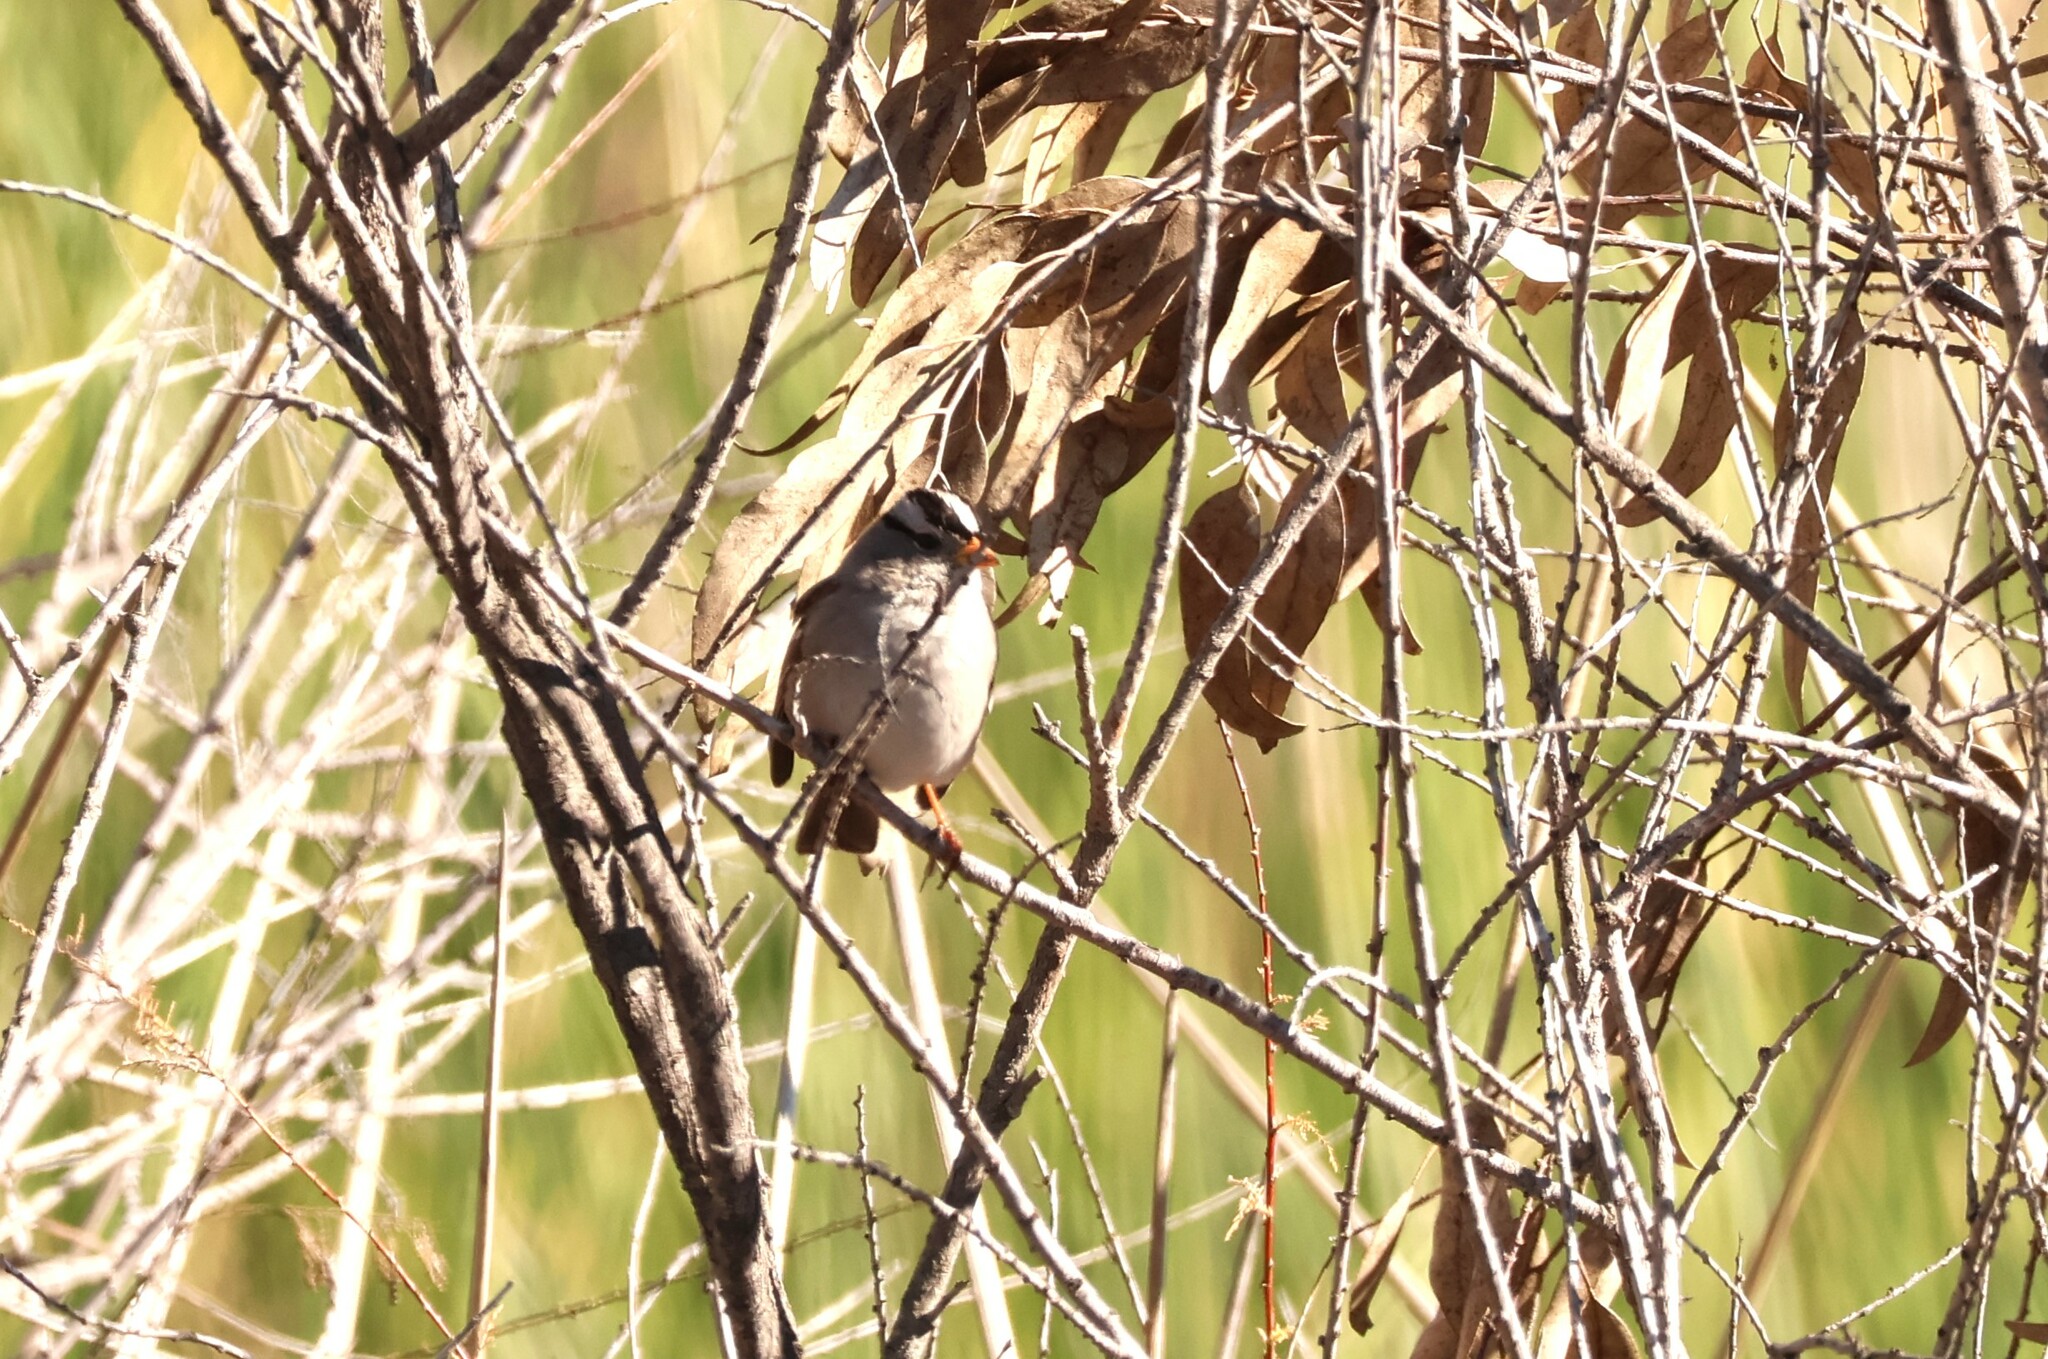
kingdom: Animalia
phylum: Chordata
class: Aves
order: Passeriformes
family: Passerellidae
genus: Zonotrichia
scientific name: Zonotrichia leucophrys
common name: White-crowned sparrow
